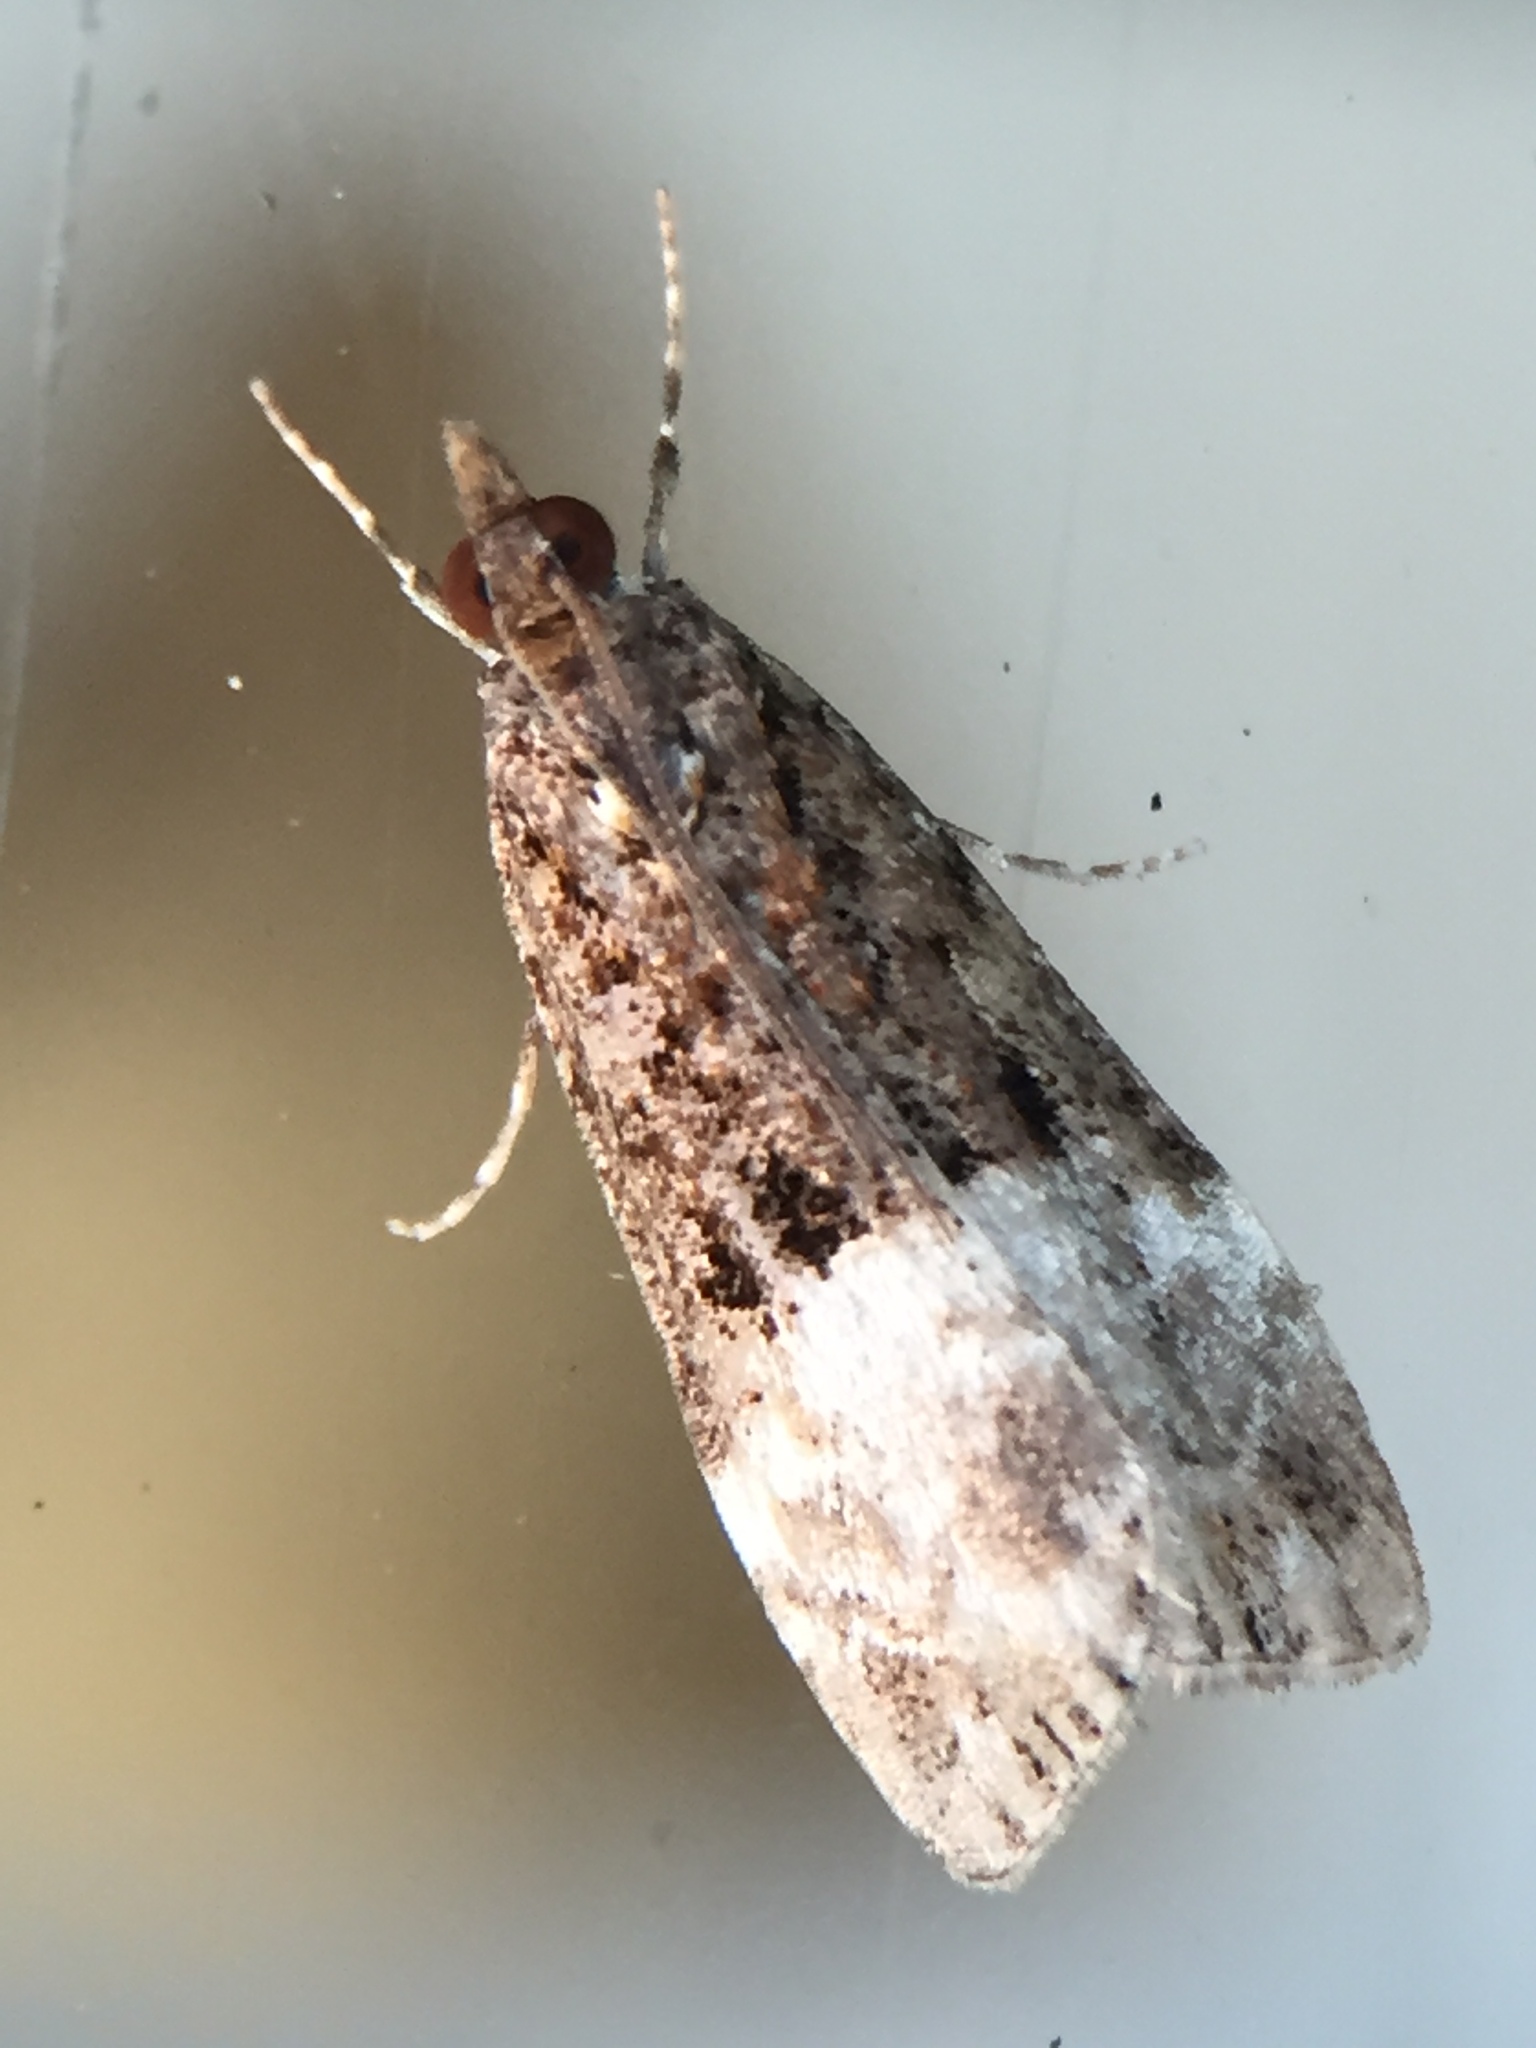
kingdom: Animalia
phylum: Arthropoda
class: Insecta
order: Lepidoptera
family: Crambidae
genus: Scoparia
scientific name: Scoparia minusculalis
